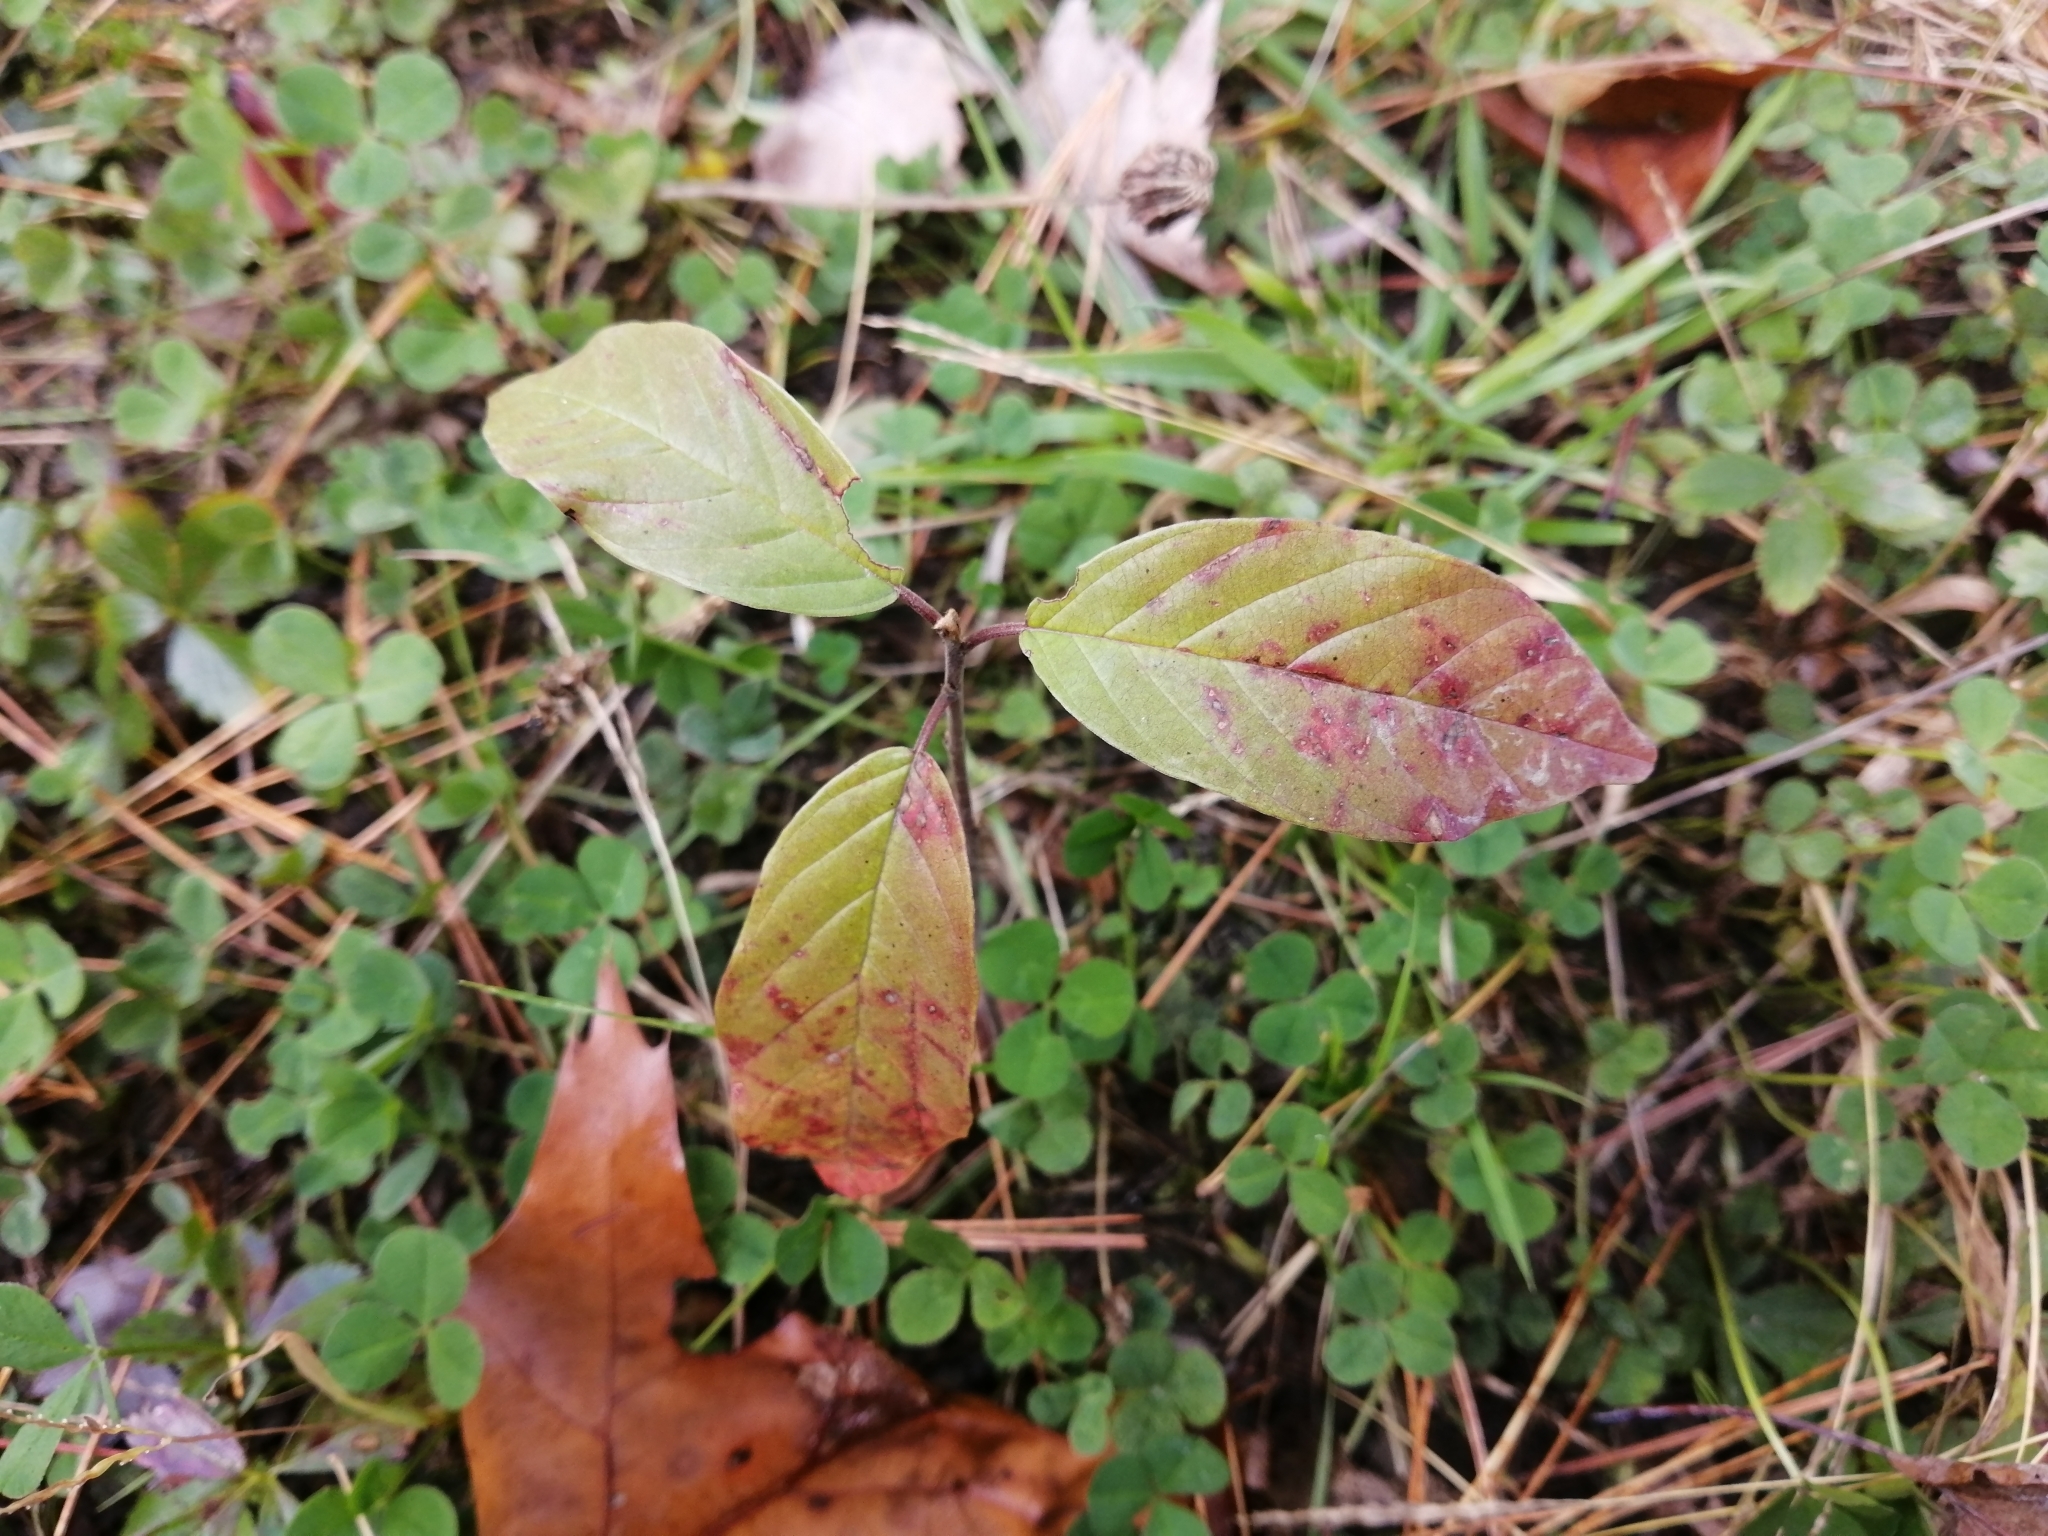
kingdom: Plantae
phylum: Tracheophyta
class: Magnoliopsida
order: Rosales
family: Rhamnaceae
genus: Frangula
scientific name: Frangula alnus
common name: Alder buckthorn
